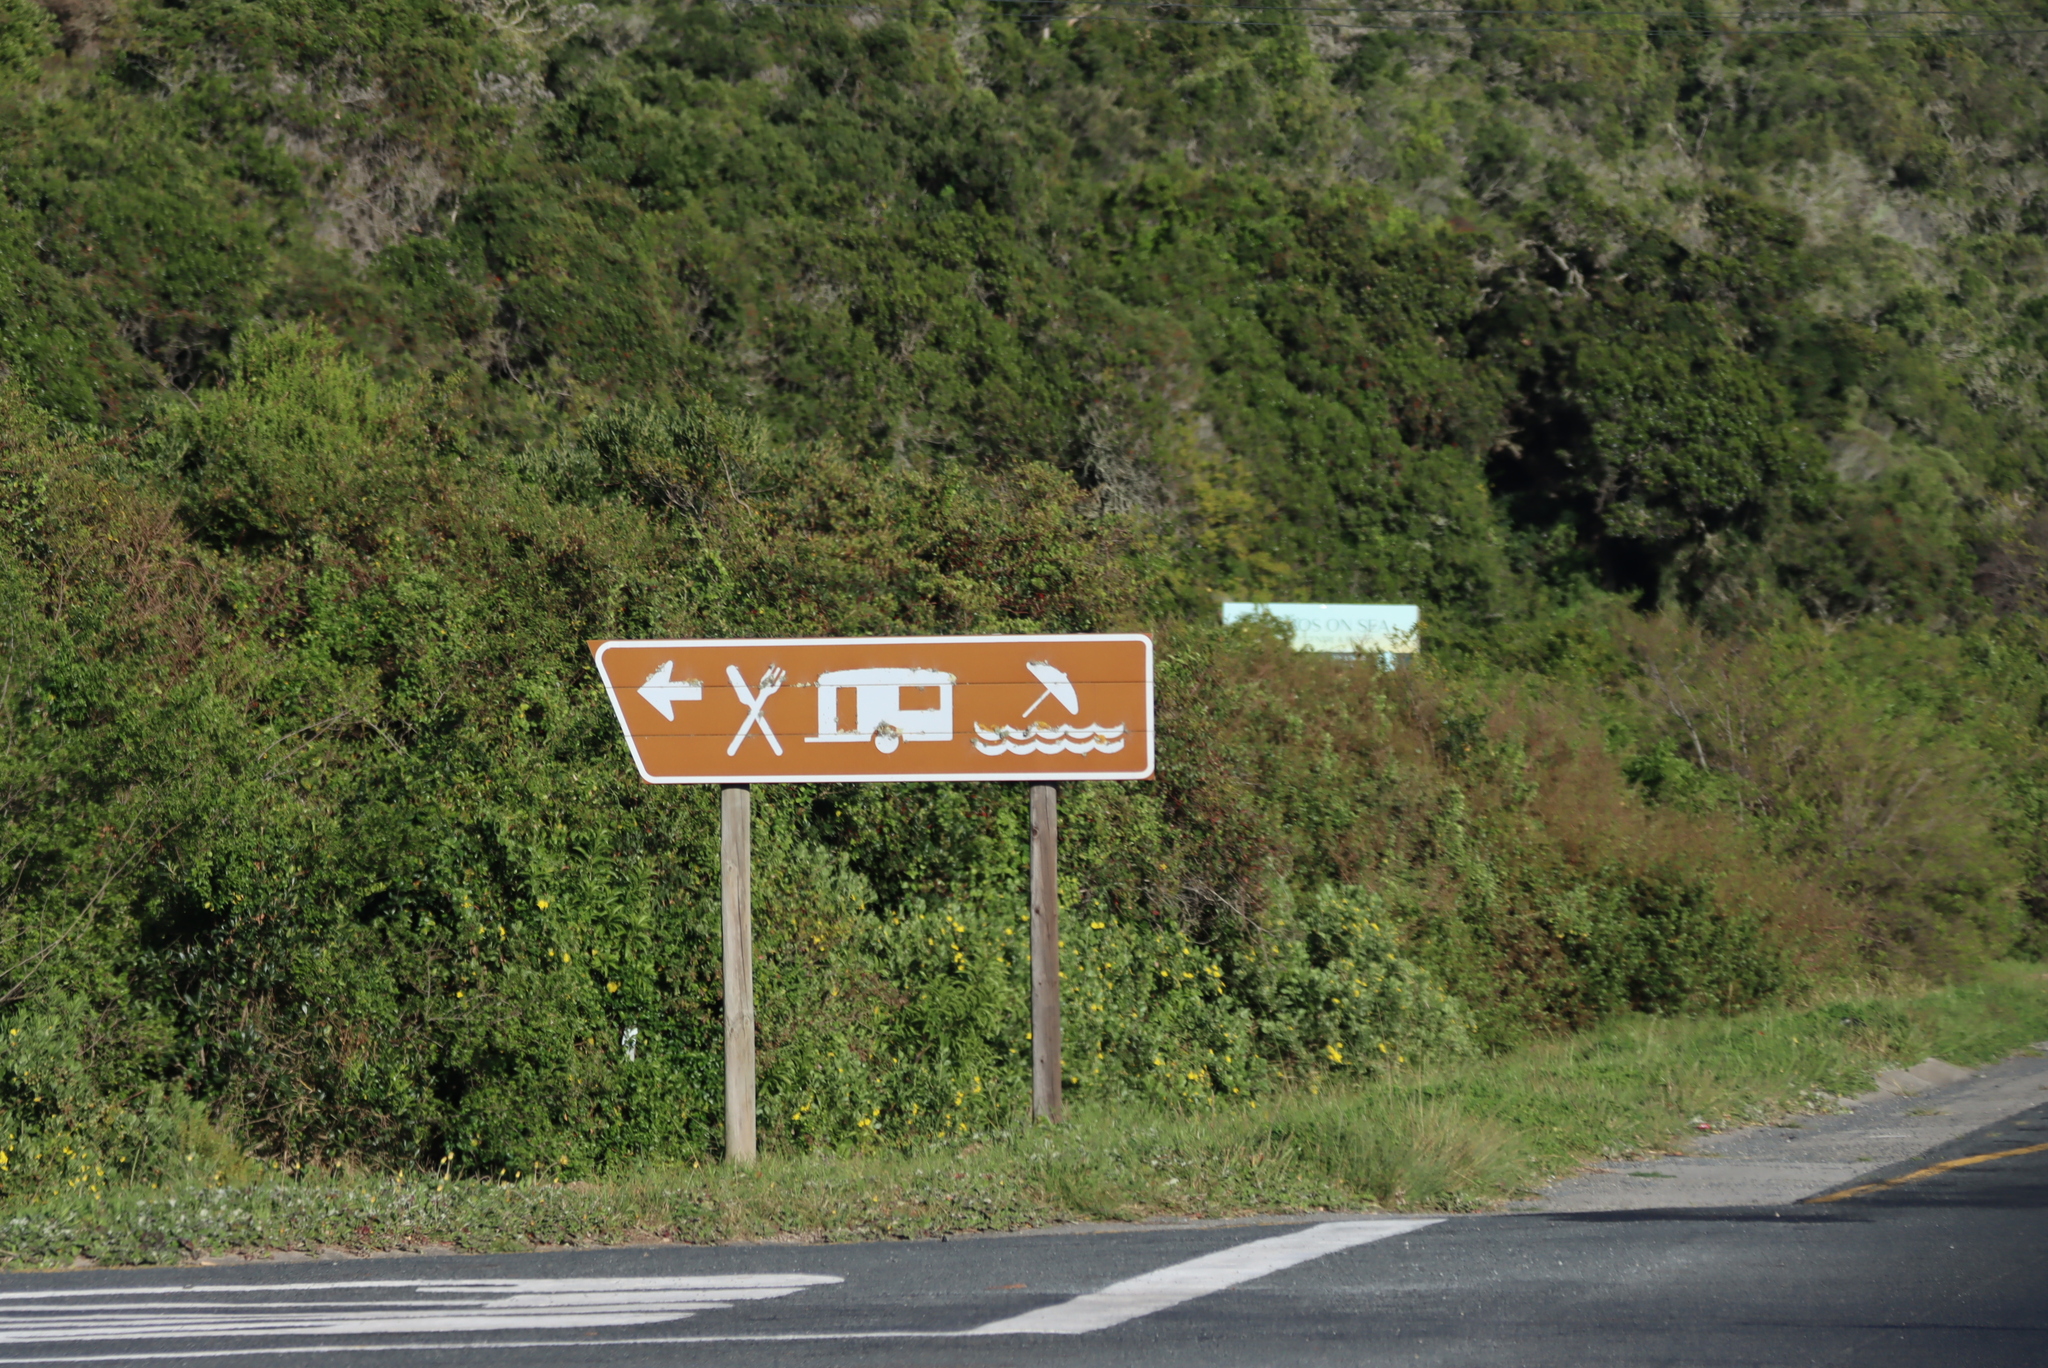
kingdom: Plantae
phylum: Tracheophyta
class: Magnoliopsida
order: Asterales
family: Asteraceae
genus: Osteospermum
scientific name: Osteospermum moniliferum
